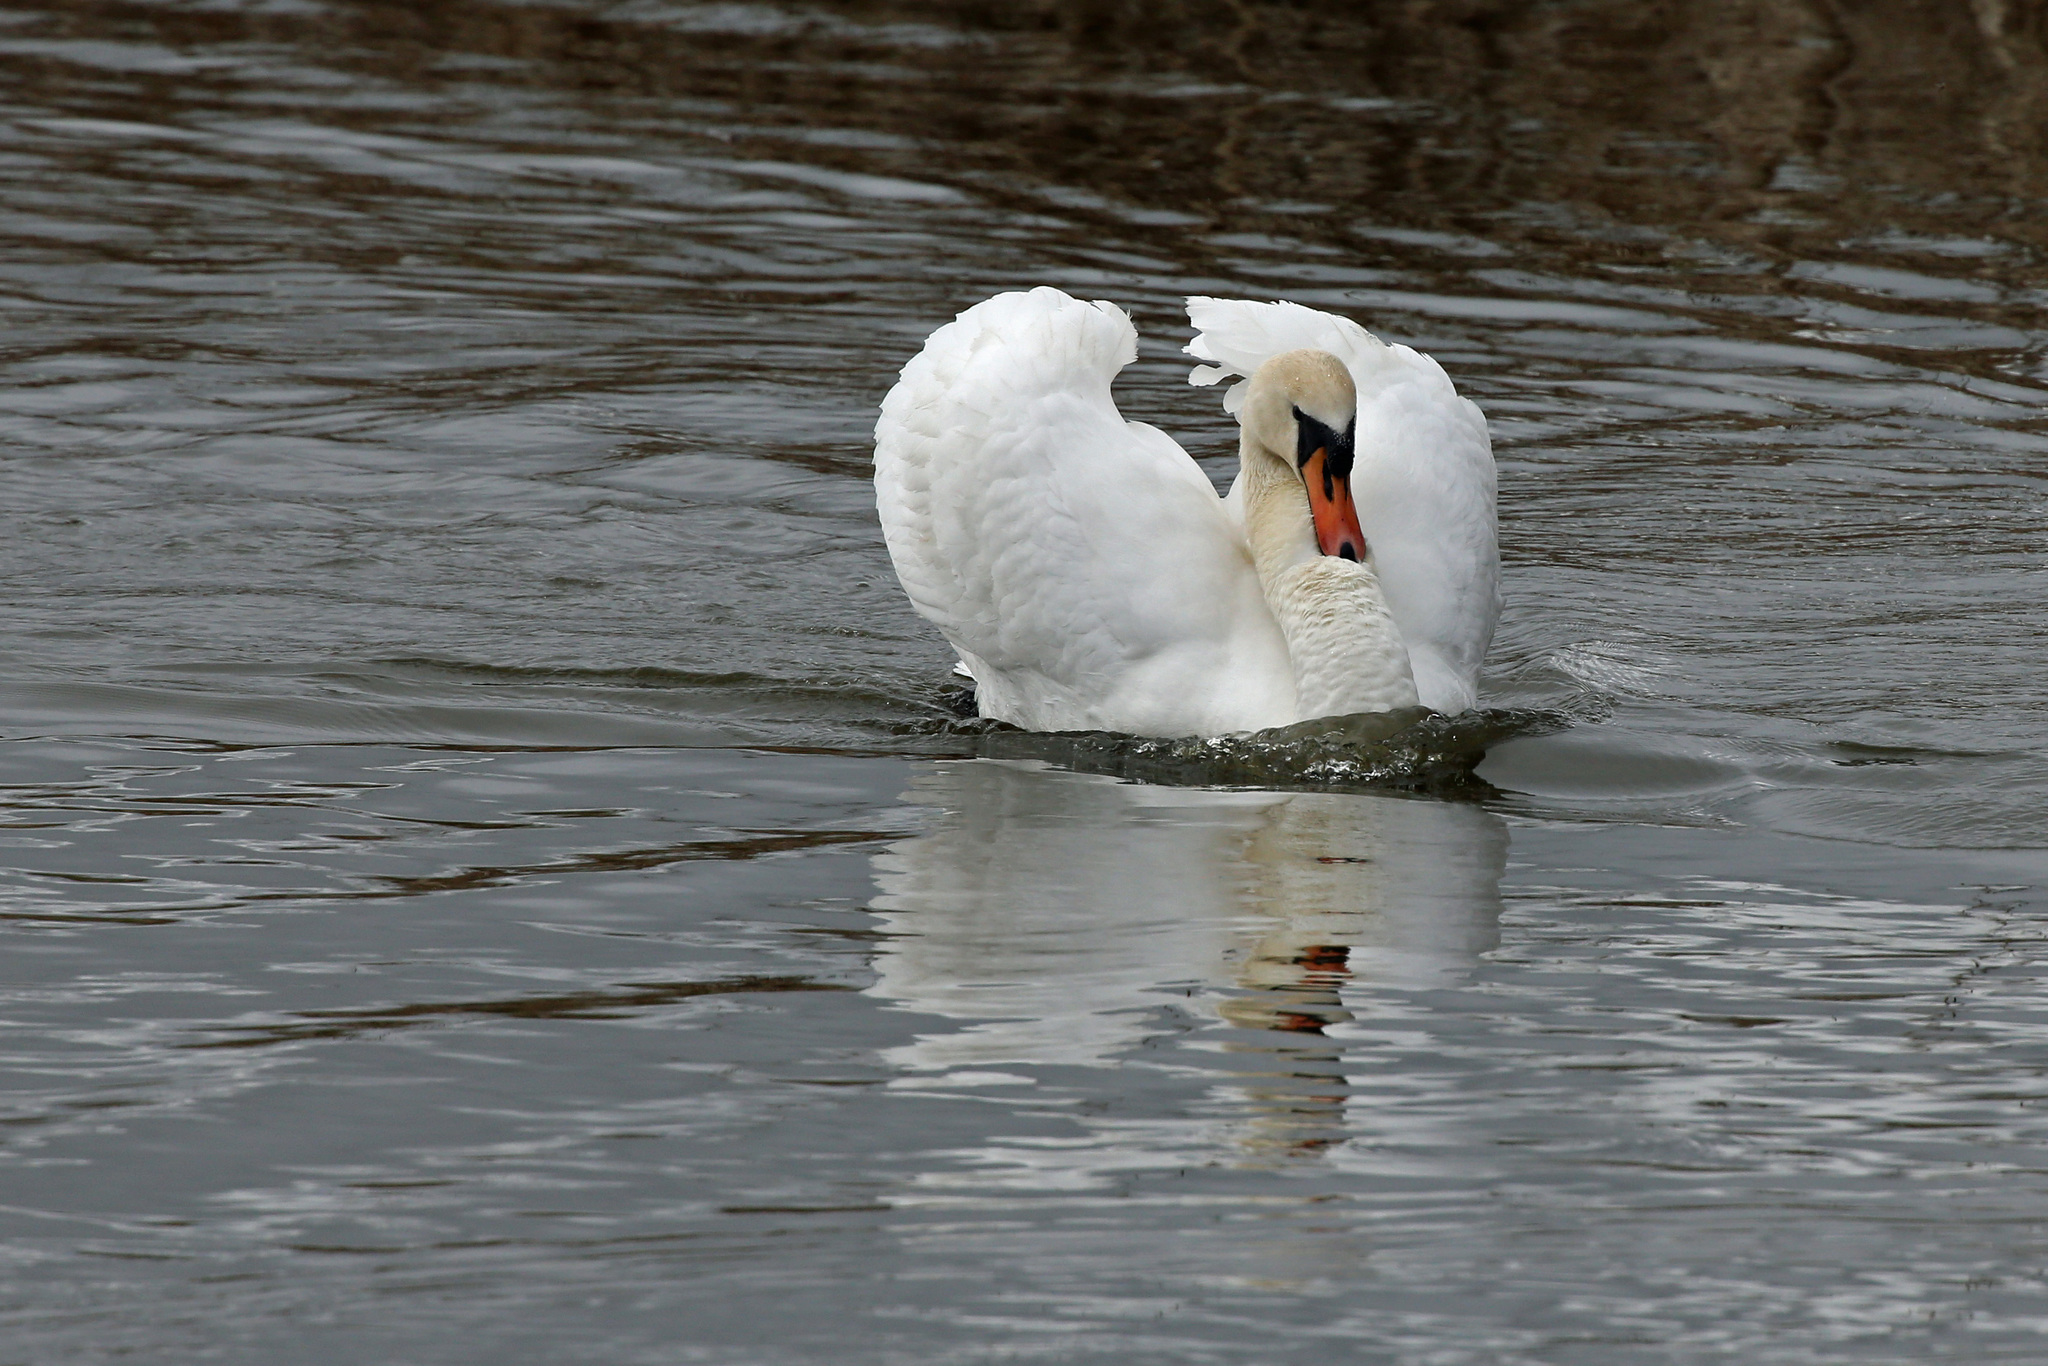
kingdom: Animalia
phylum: Chordata
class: Aves
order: Anseriformes
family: Anatidae
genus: Cygnus
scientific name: Cygnus olor
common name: Mute swan
